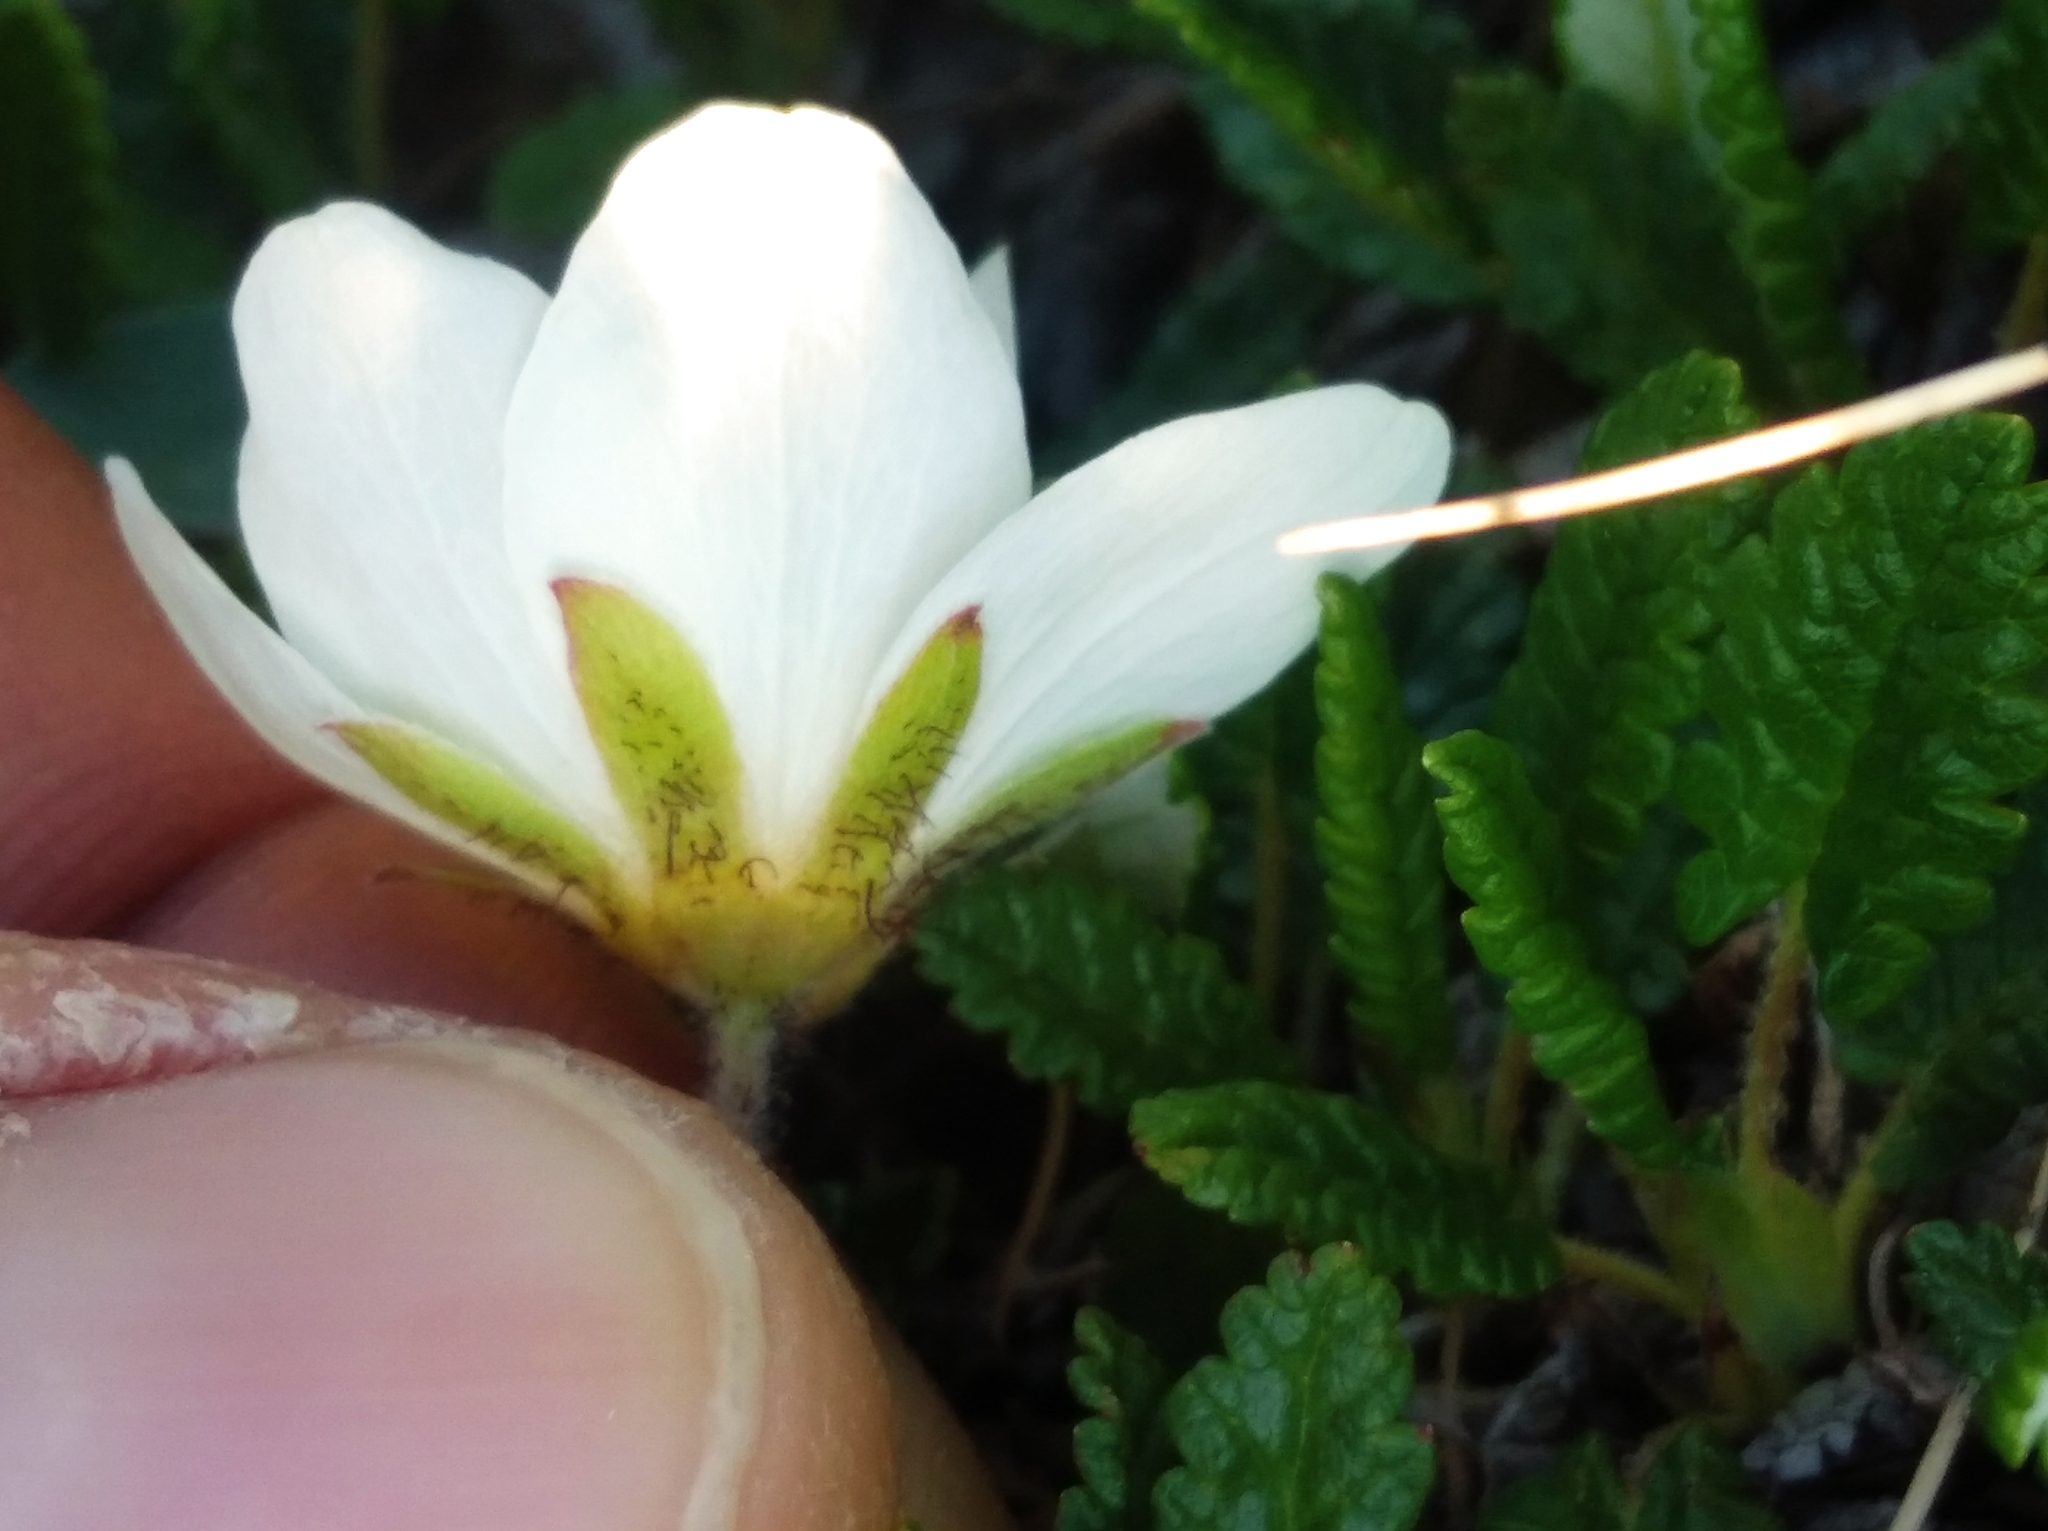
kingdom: Plantae
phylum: Tracheophyta
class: Magnoliopsida
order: Rosales
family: Rosaceae
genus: Dryas
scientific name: Dryas octopetala
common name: Eight-petal mountain-avens
